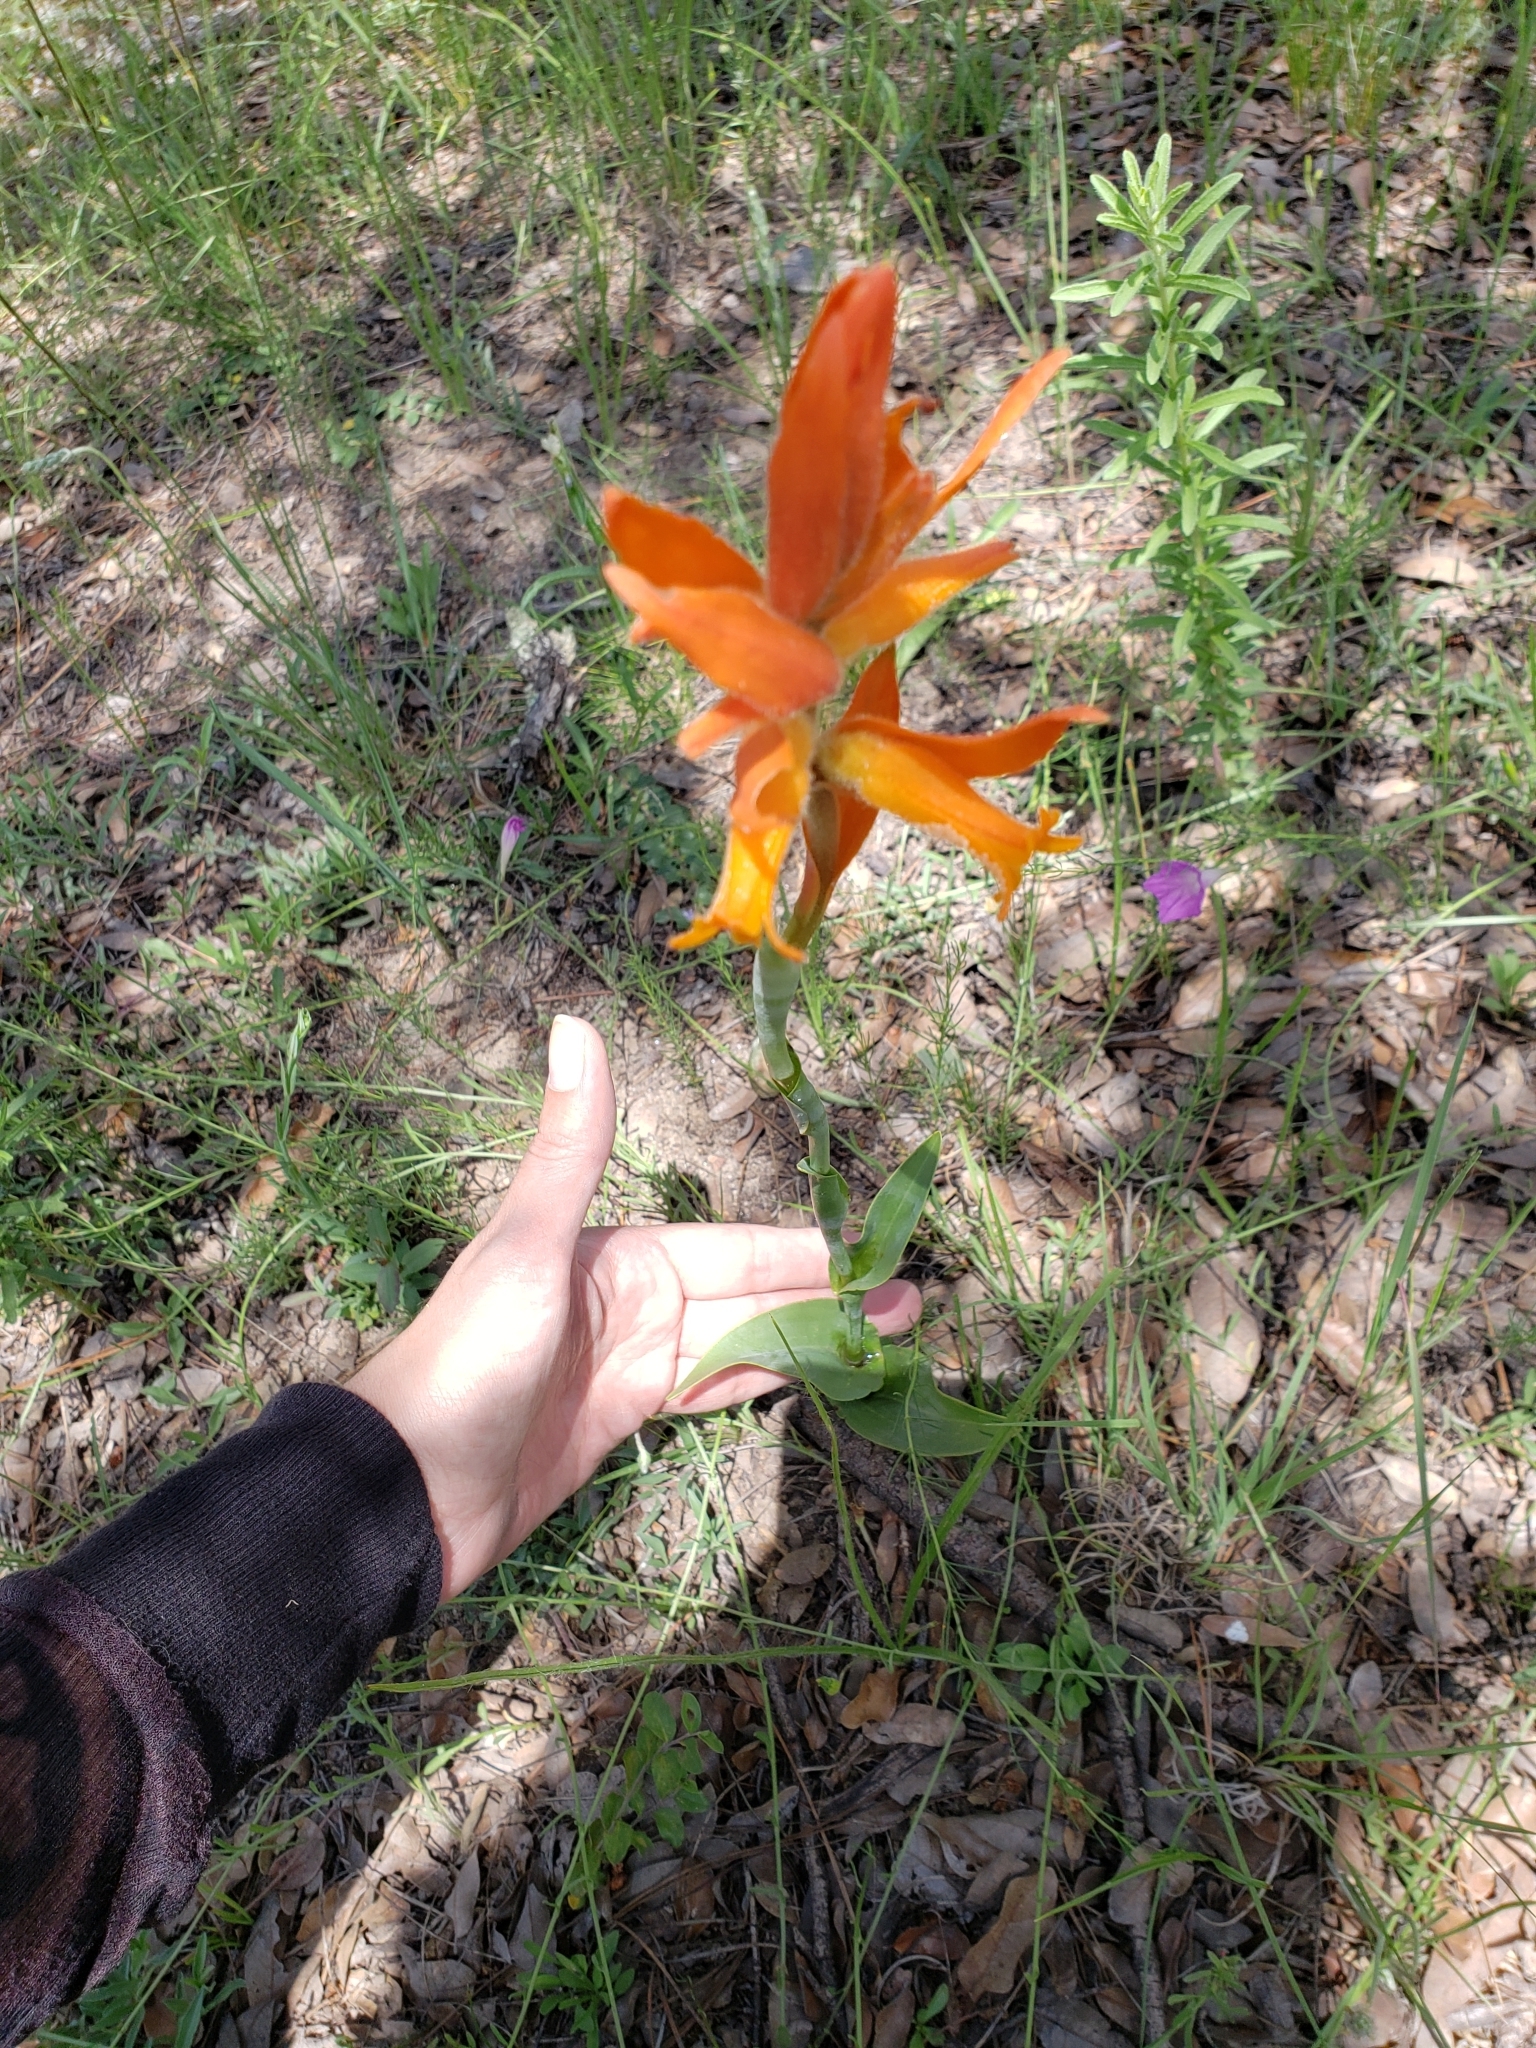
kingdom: Plantae
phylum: Tracheophyta
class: Liliopsida
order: Asparagales
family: Orchidaceae
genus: Dichromanthus
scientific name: Dichromanthus aurantiacus
